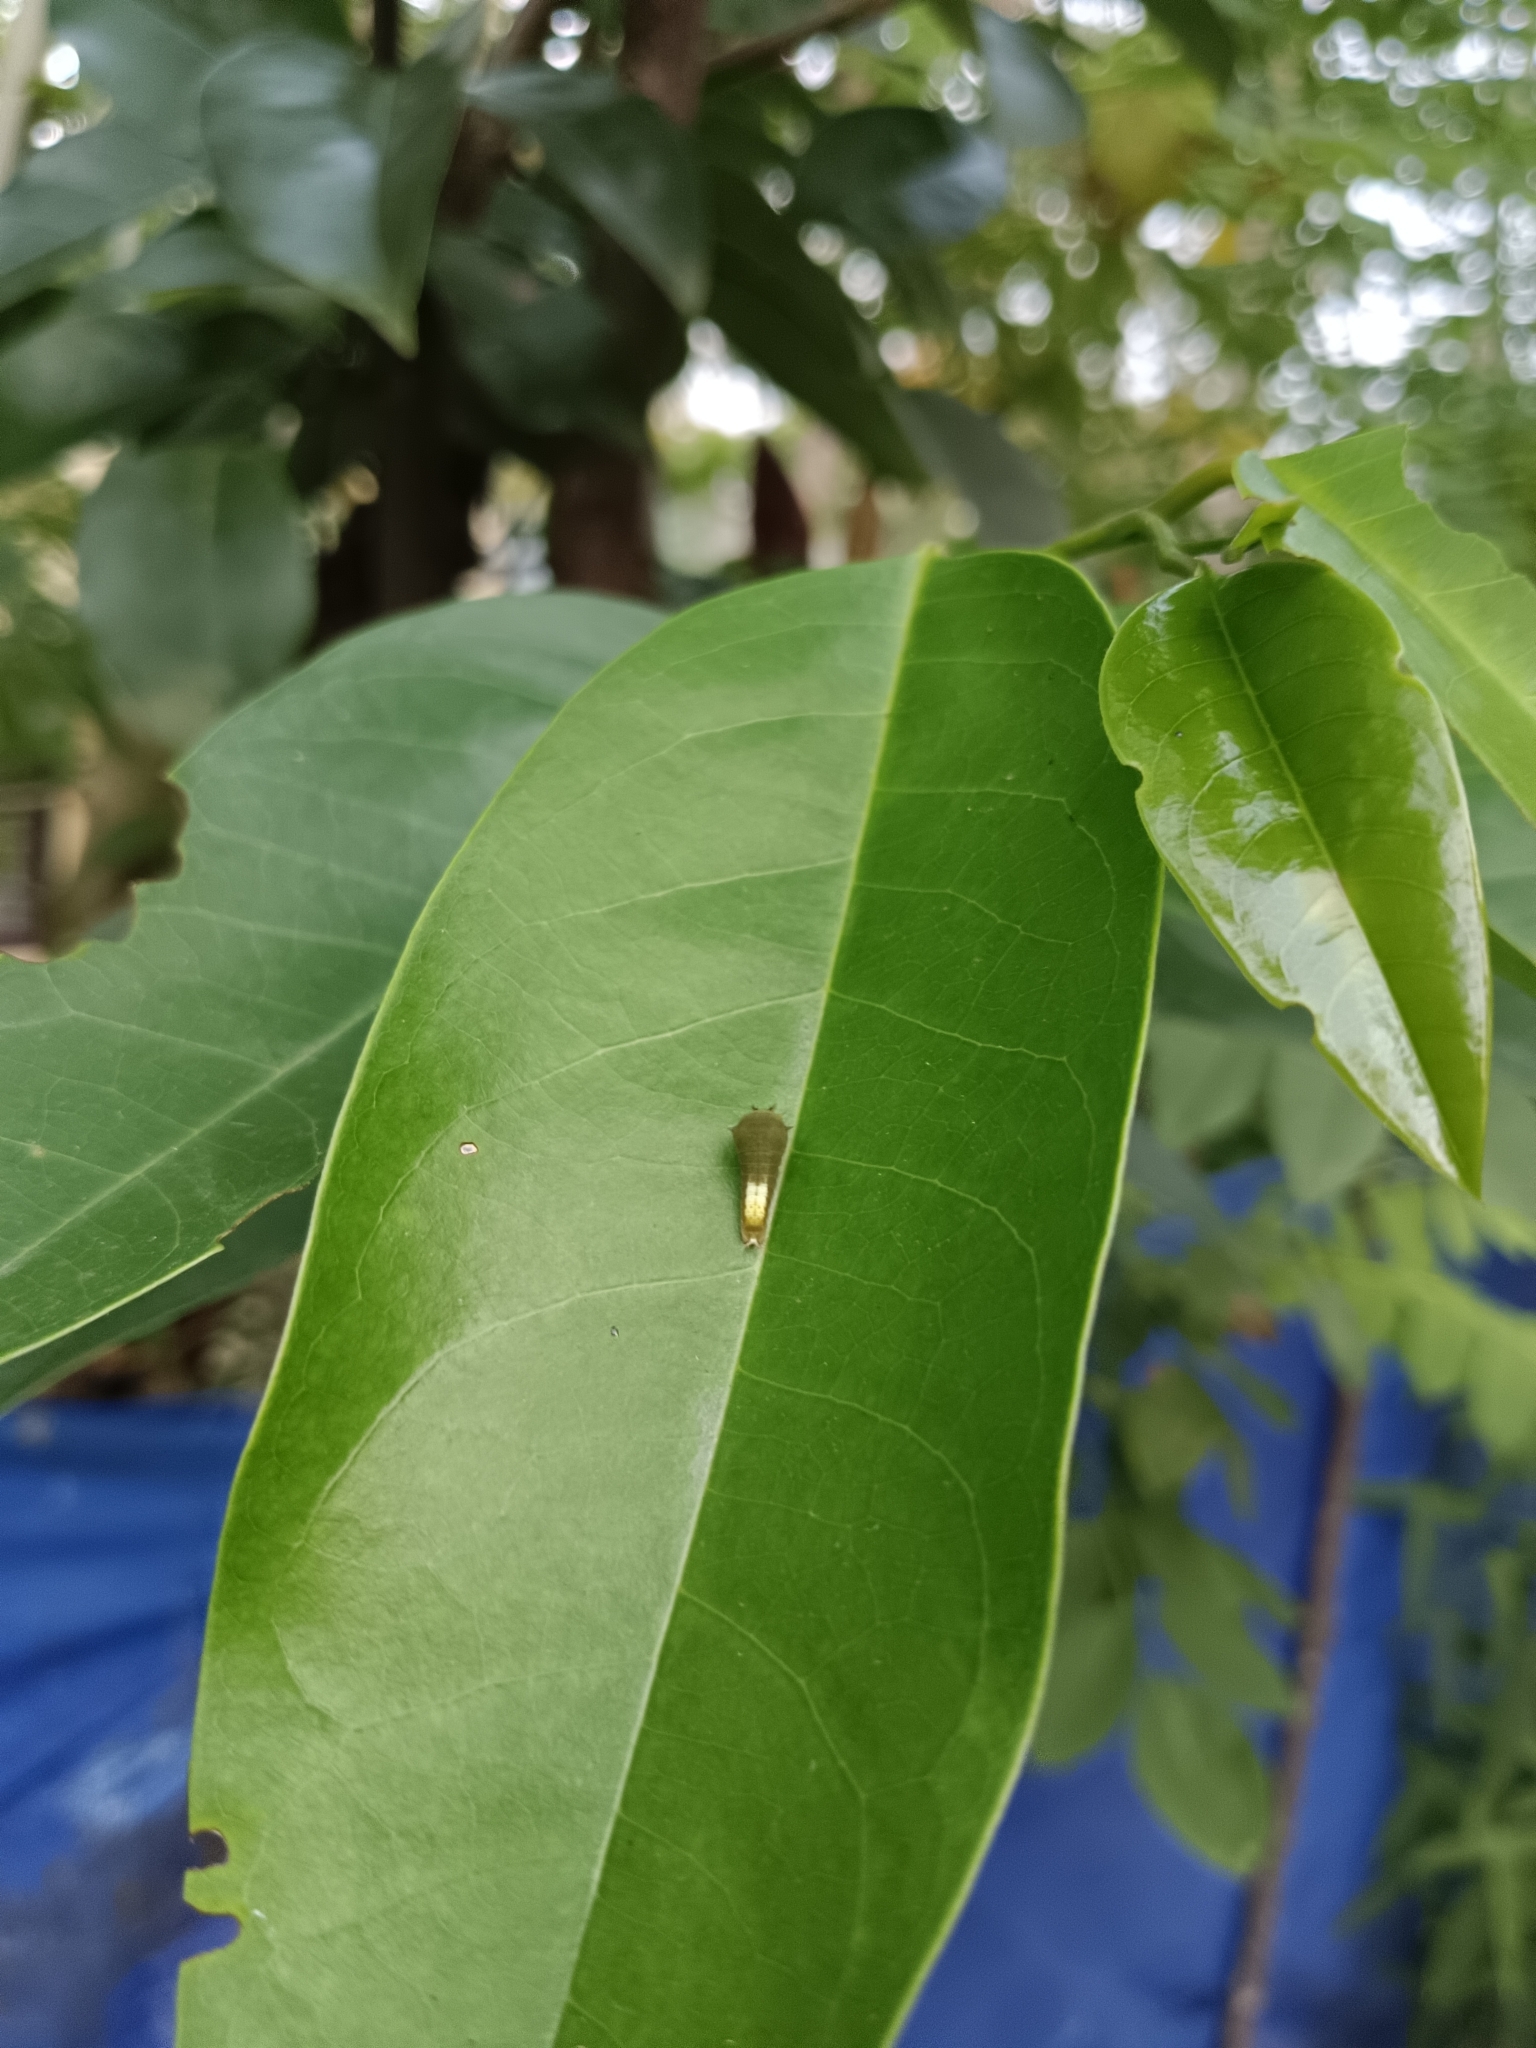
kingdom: Animalia
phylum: Arthropoda
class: Insecta
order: Lepidoptera
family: Papilionidae
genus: Graphium
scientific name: Graphium agamemnon
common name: Tailed jay
